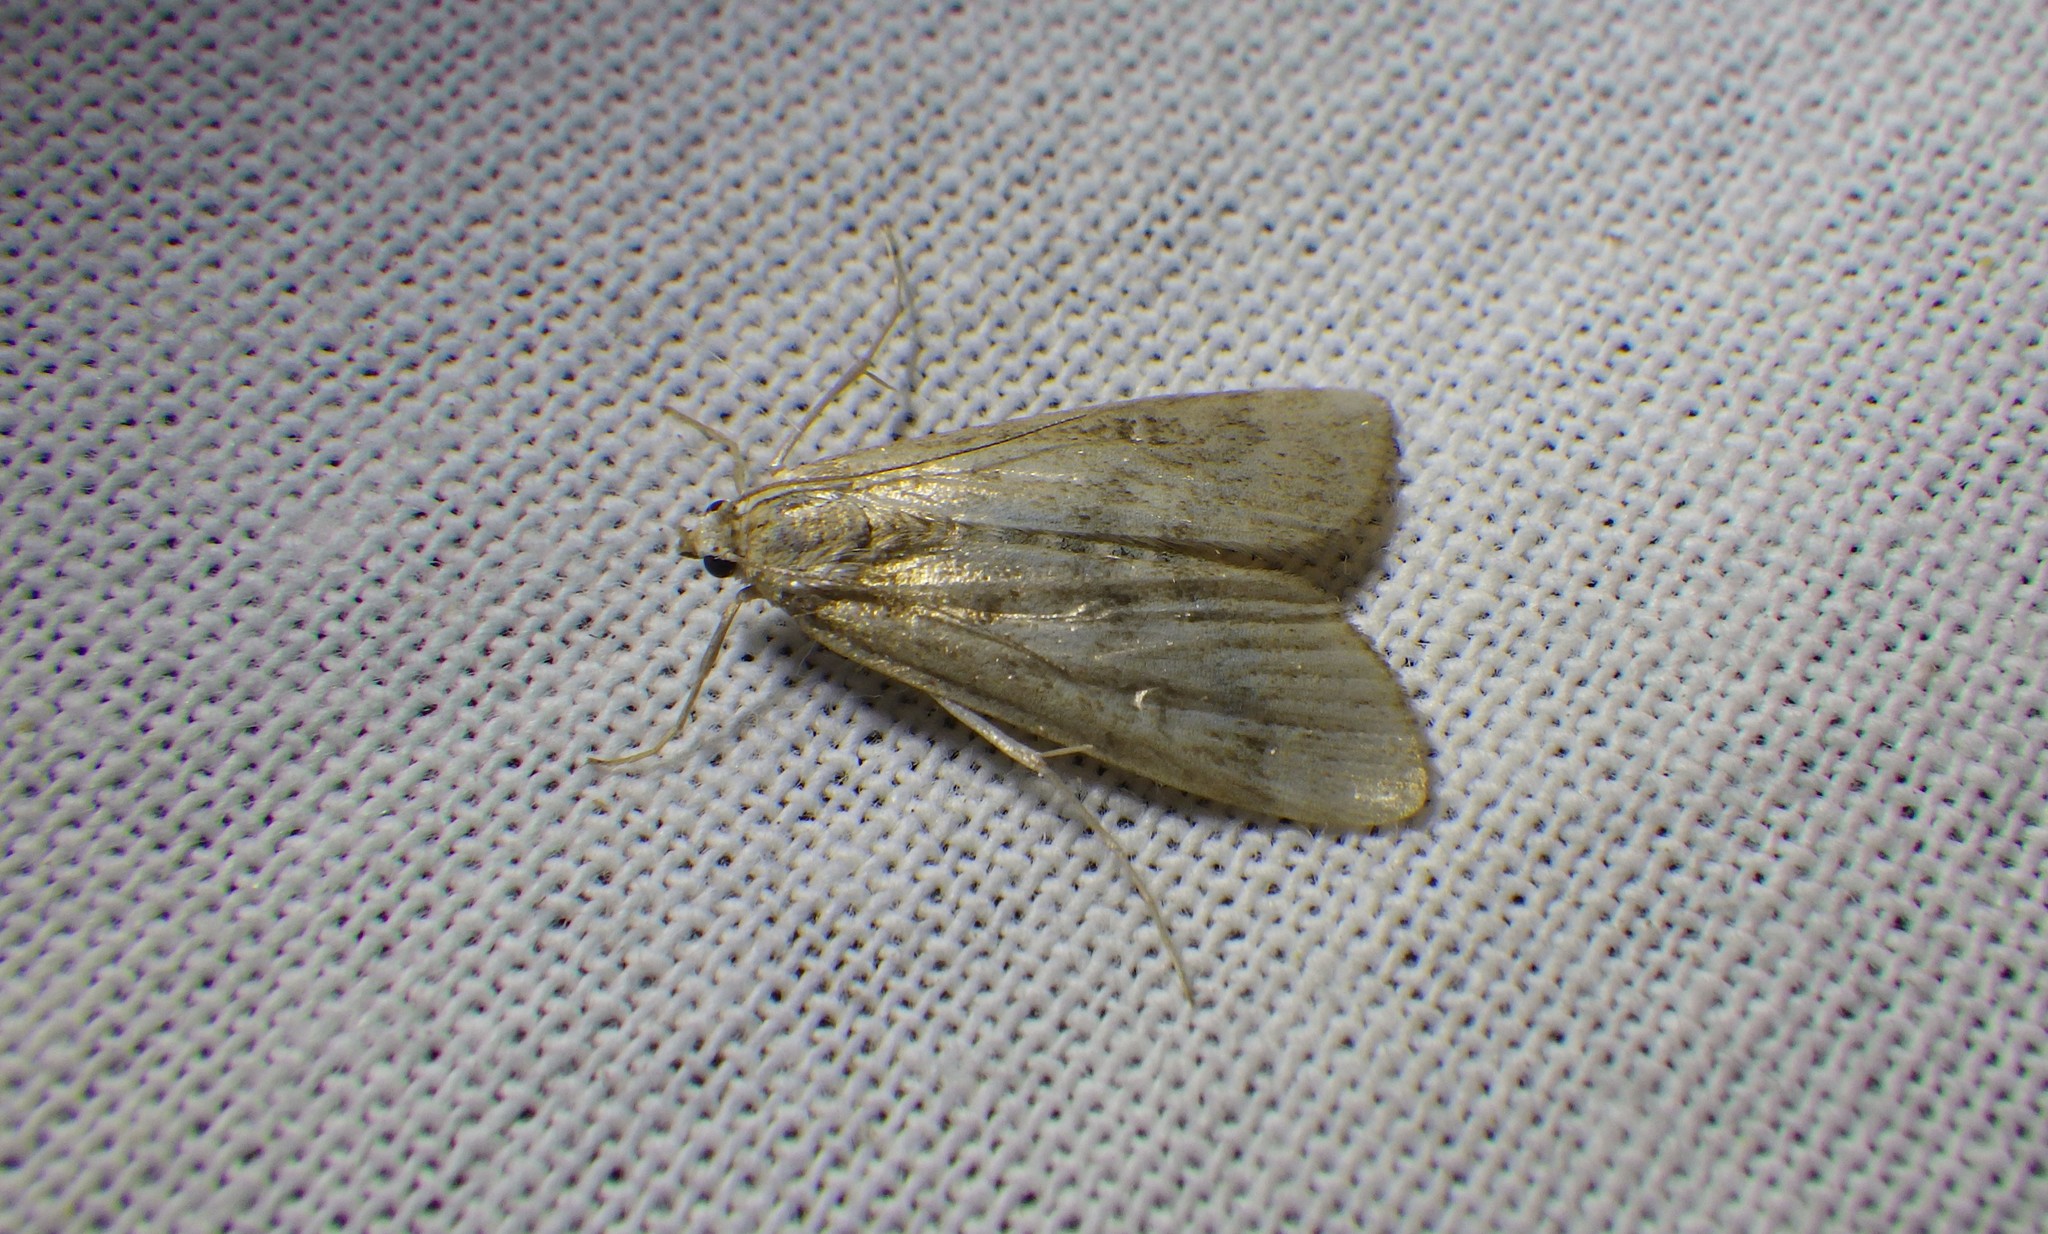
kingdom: Animalia
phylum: Arthropoda
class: Insecta
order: Lepidoptera
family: Crambidae
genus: Parapoynx
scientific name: Parapoynx stratiotata
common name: Ringed china-mark
